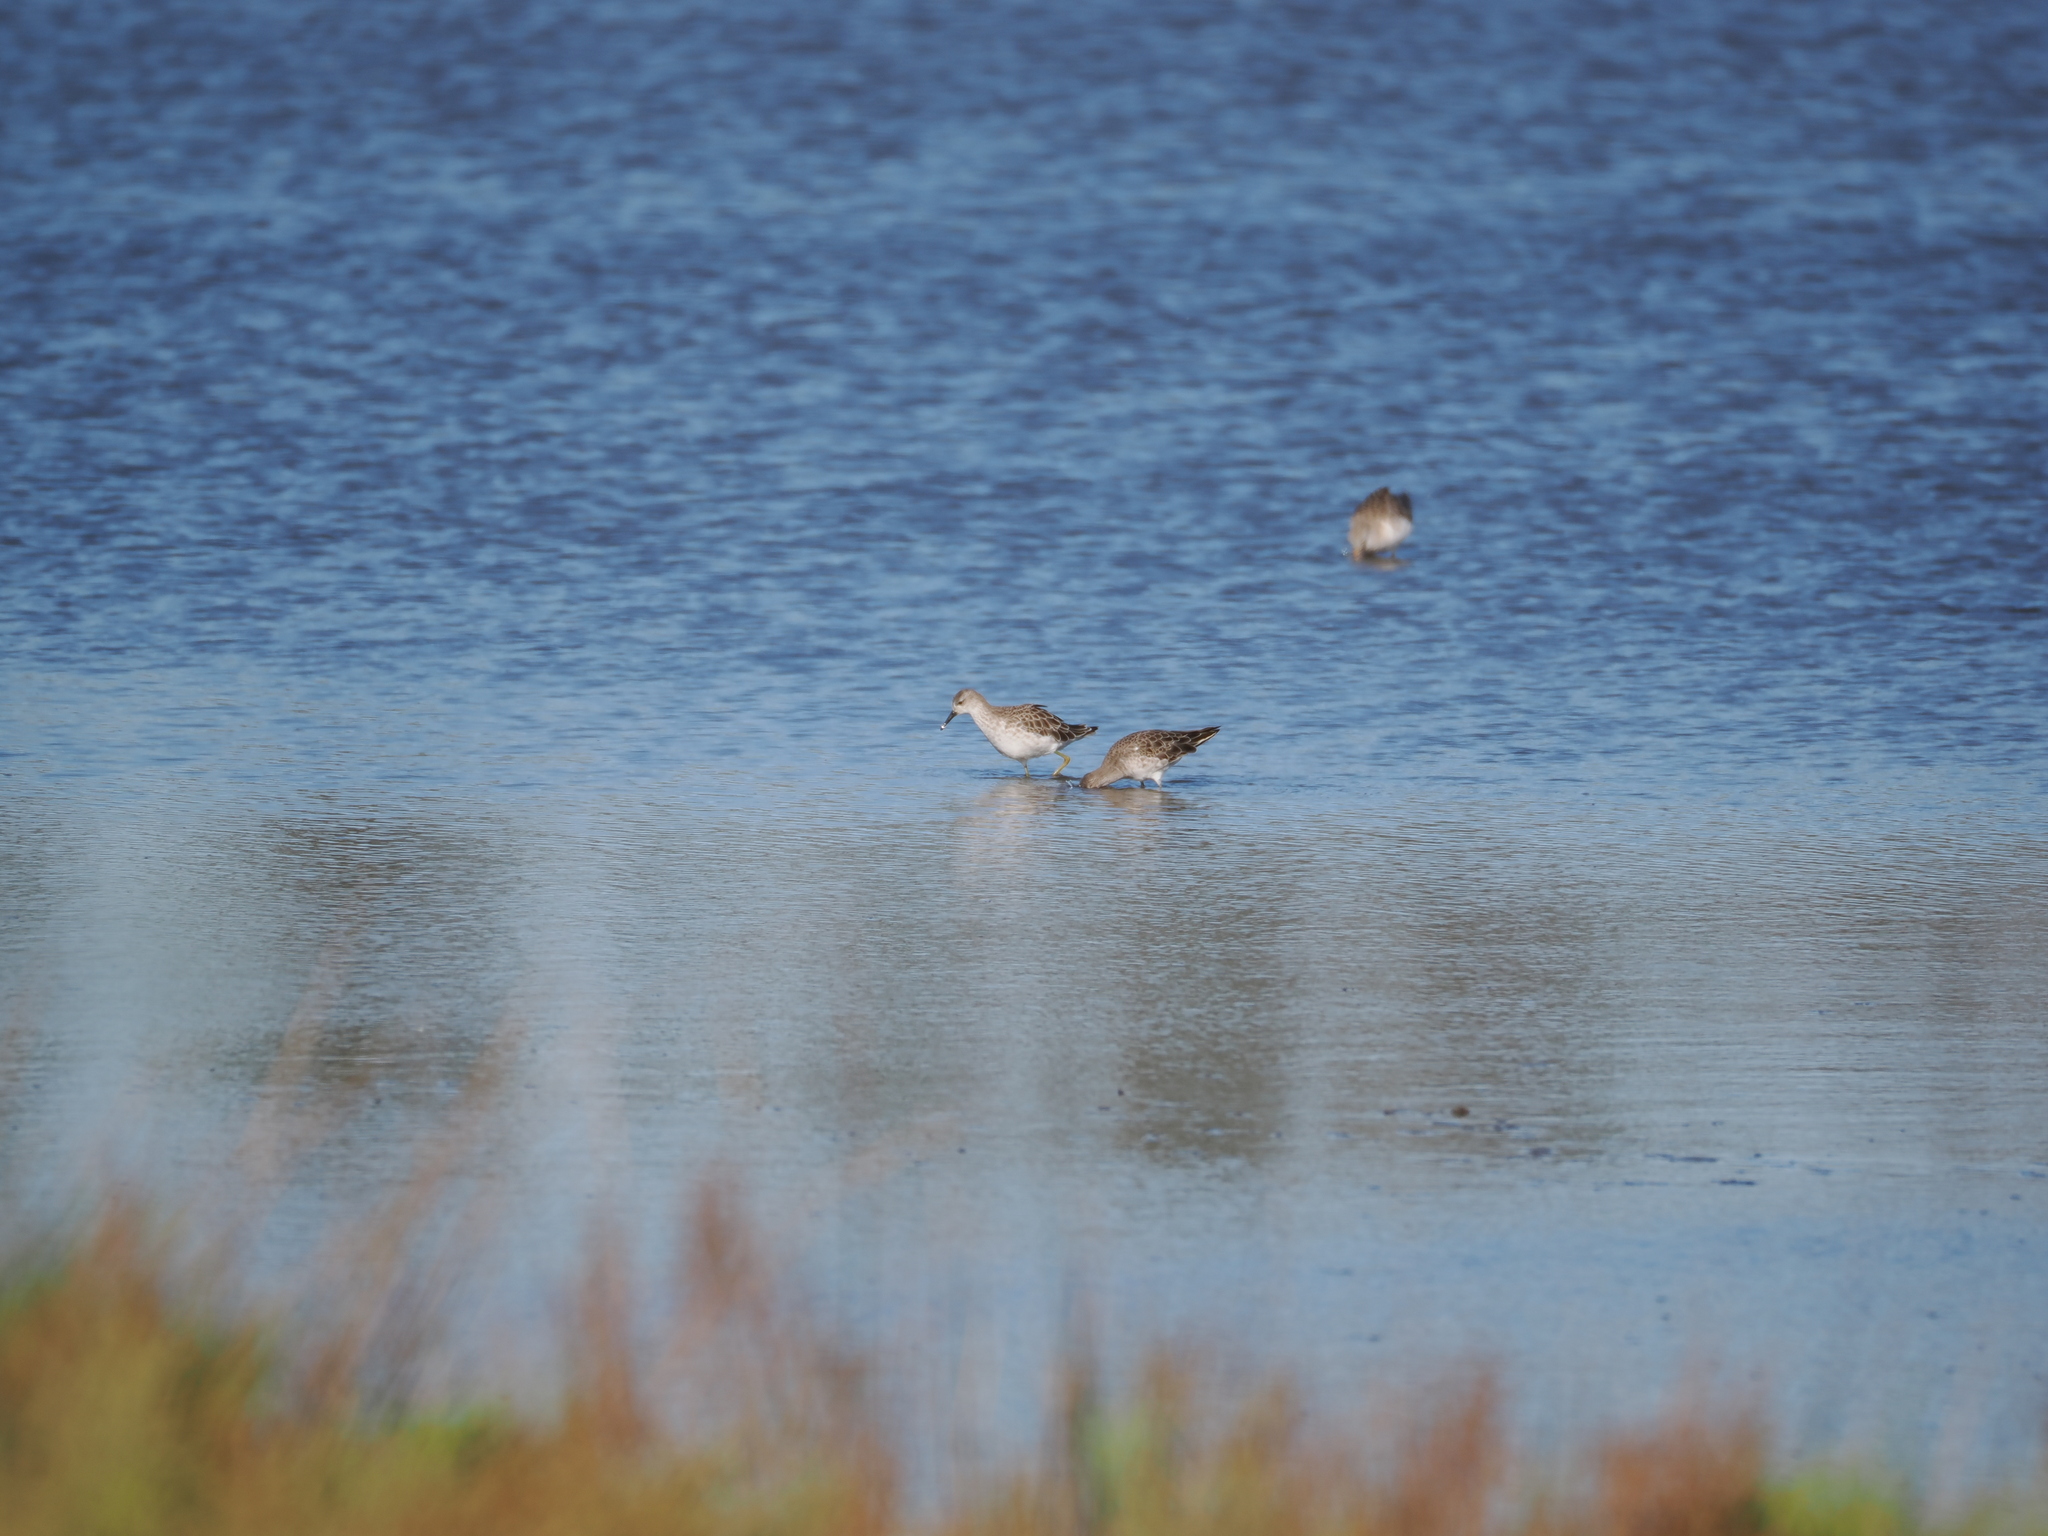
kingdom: Animalia
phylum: Chordata
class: Aves
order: Charadriiformes
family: Scolopacidae
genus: Calidris
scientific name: Calidris pugnax
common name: Ruff
